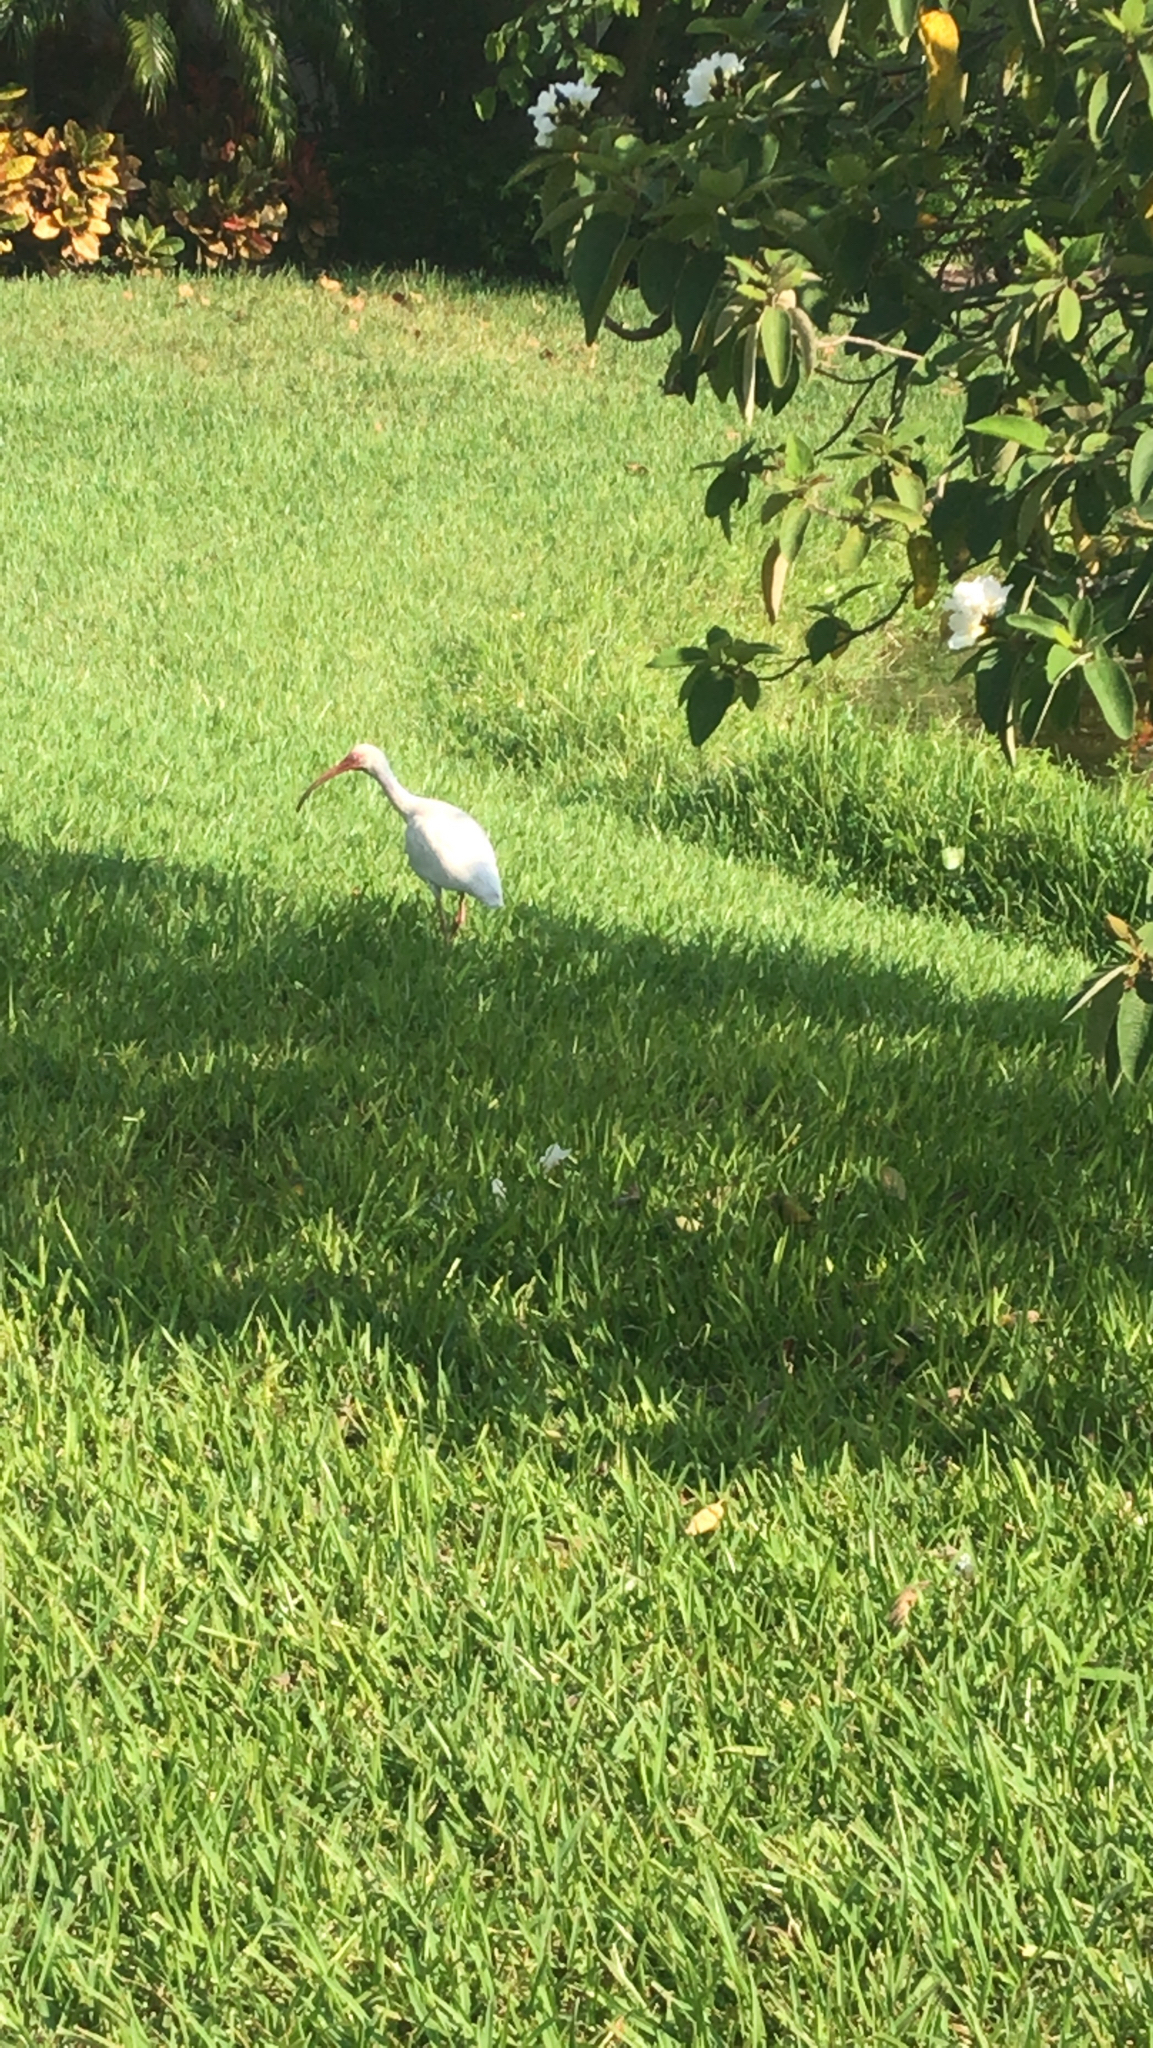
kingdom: Animalia
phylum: Chordata
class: Aves
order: Pelecaniformes
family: Threskiornithidae
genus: Eudocimus
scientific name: Eudocimus albus
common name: White ibis
